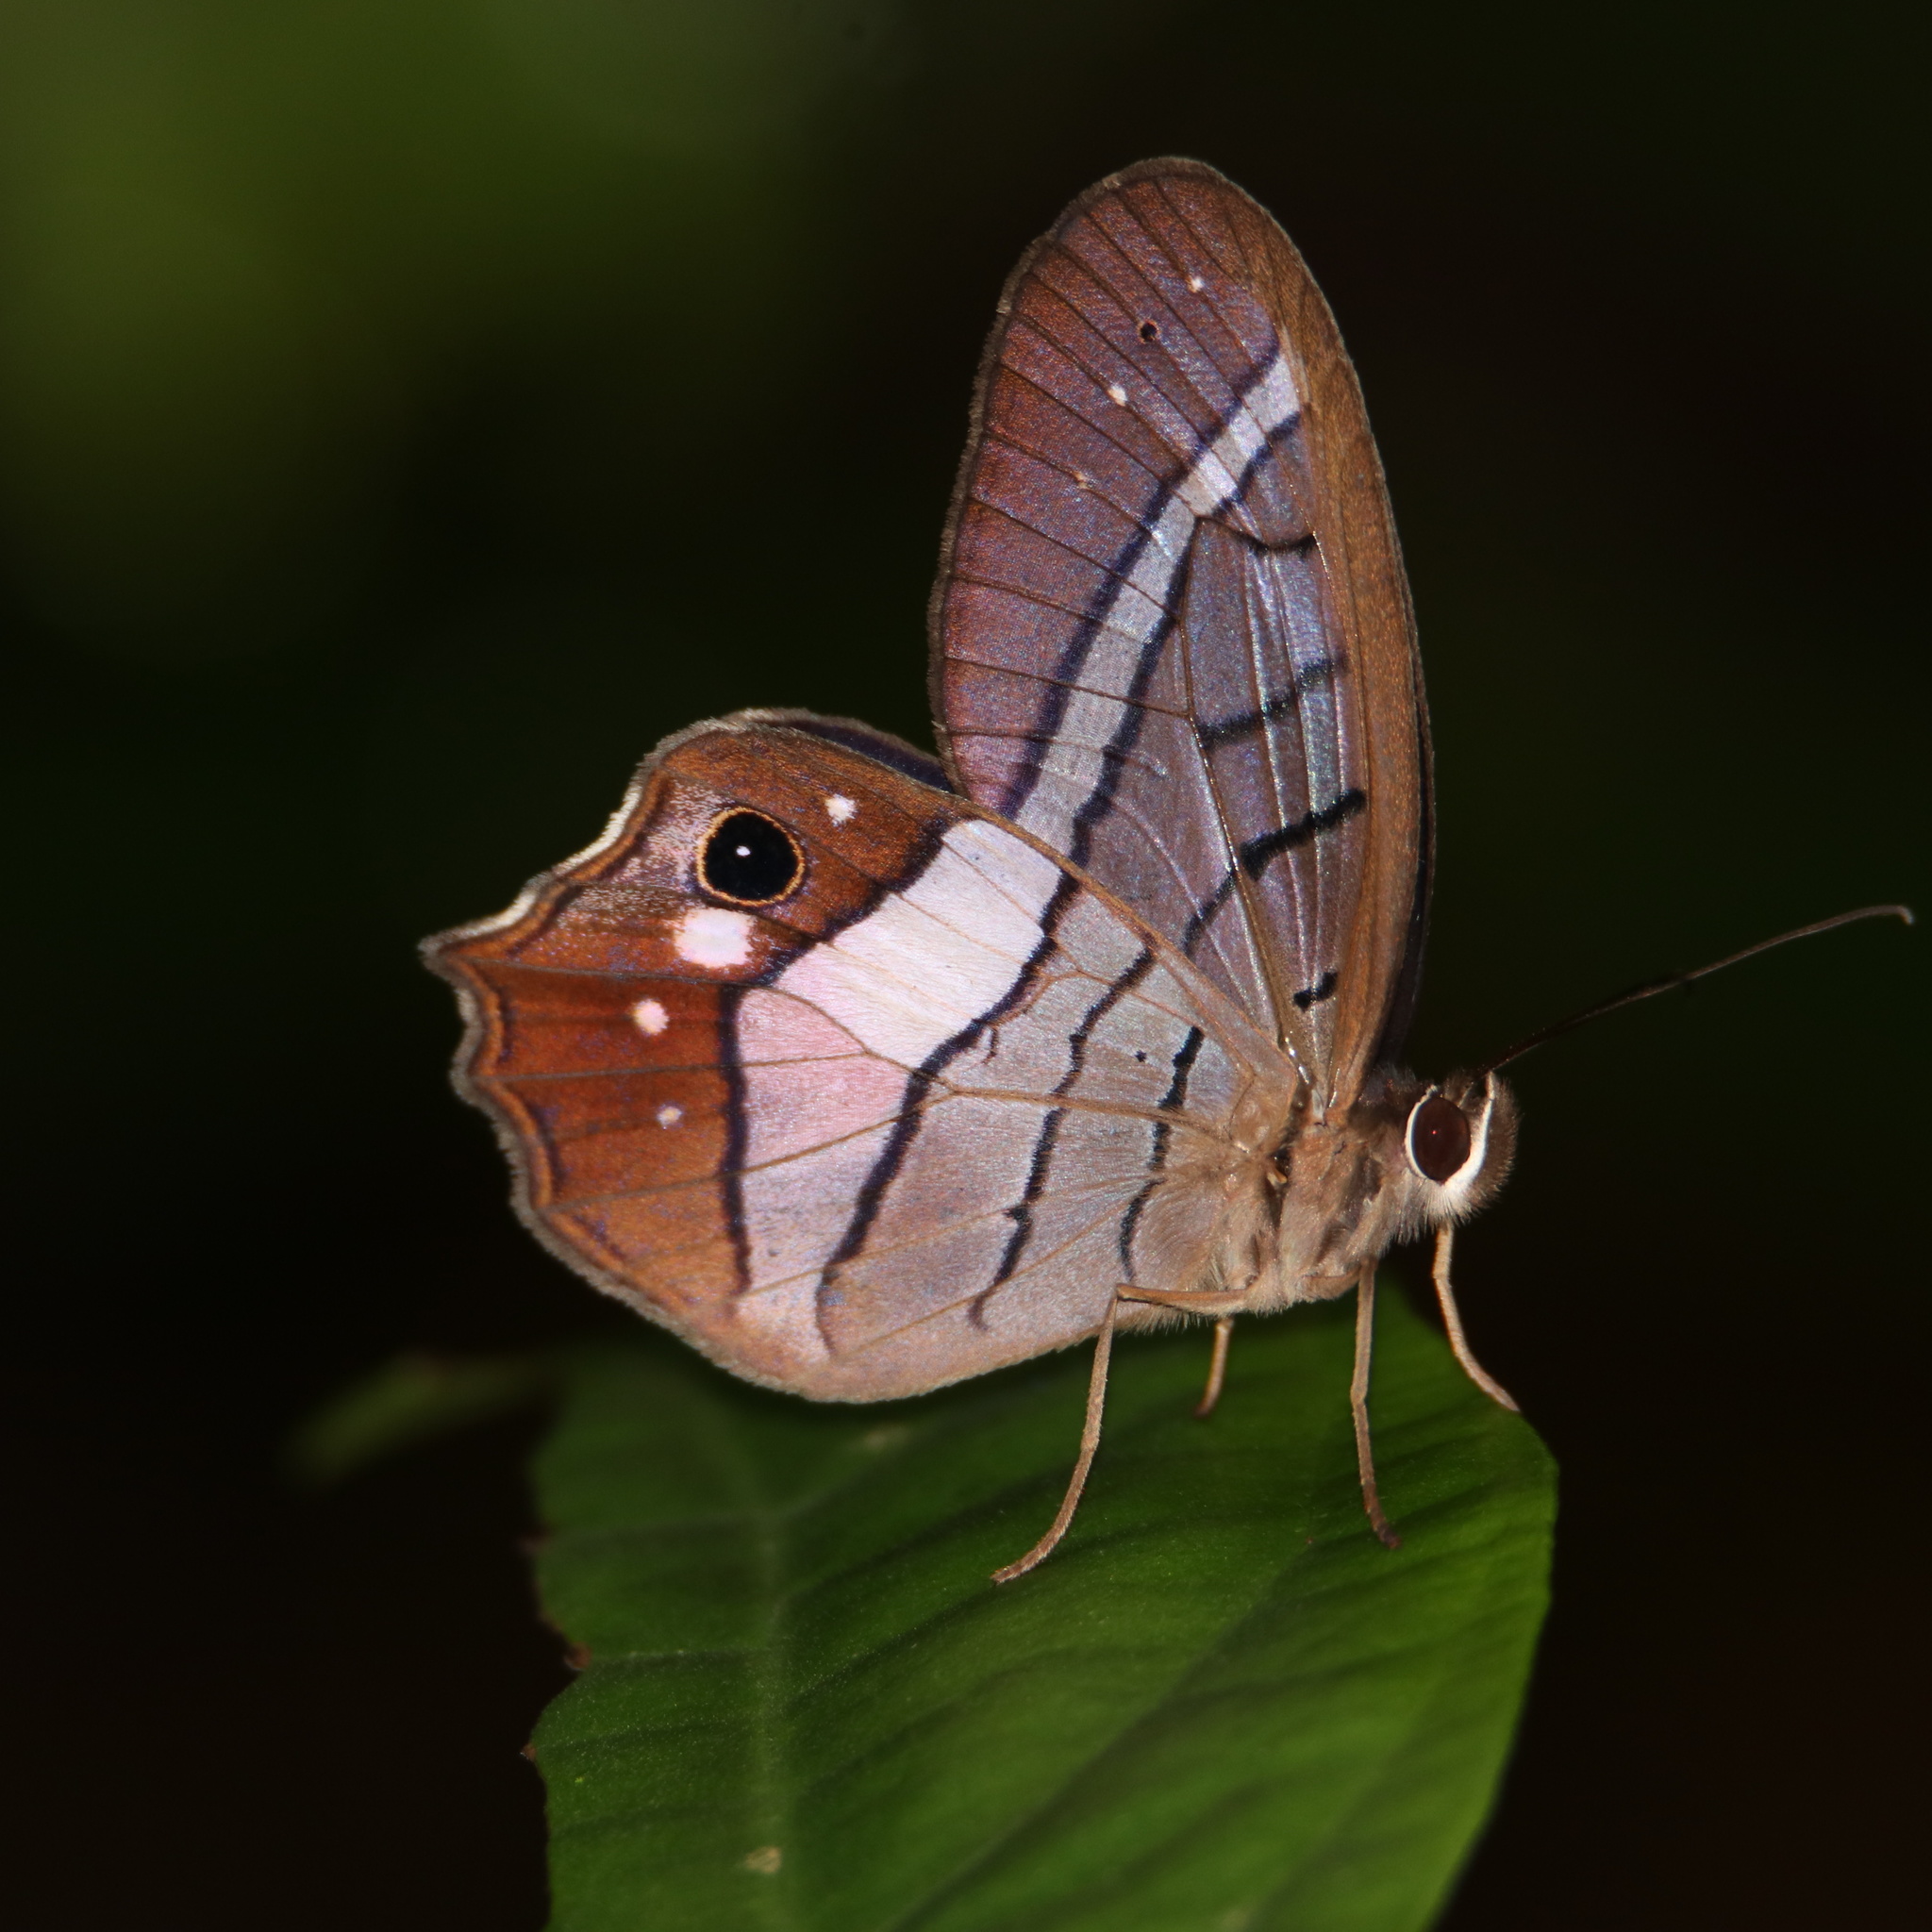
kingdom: Animalia
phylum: Arthropoda
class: Insecta
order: Lepidoptera
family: Nymphalidae
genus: Pierella
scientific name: Pierella helvina
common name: Red-washed satyr
